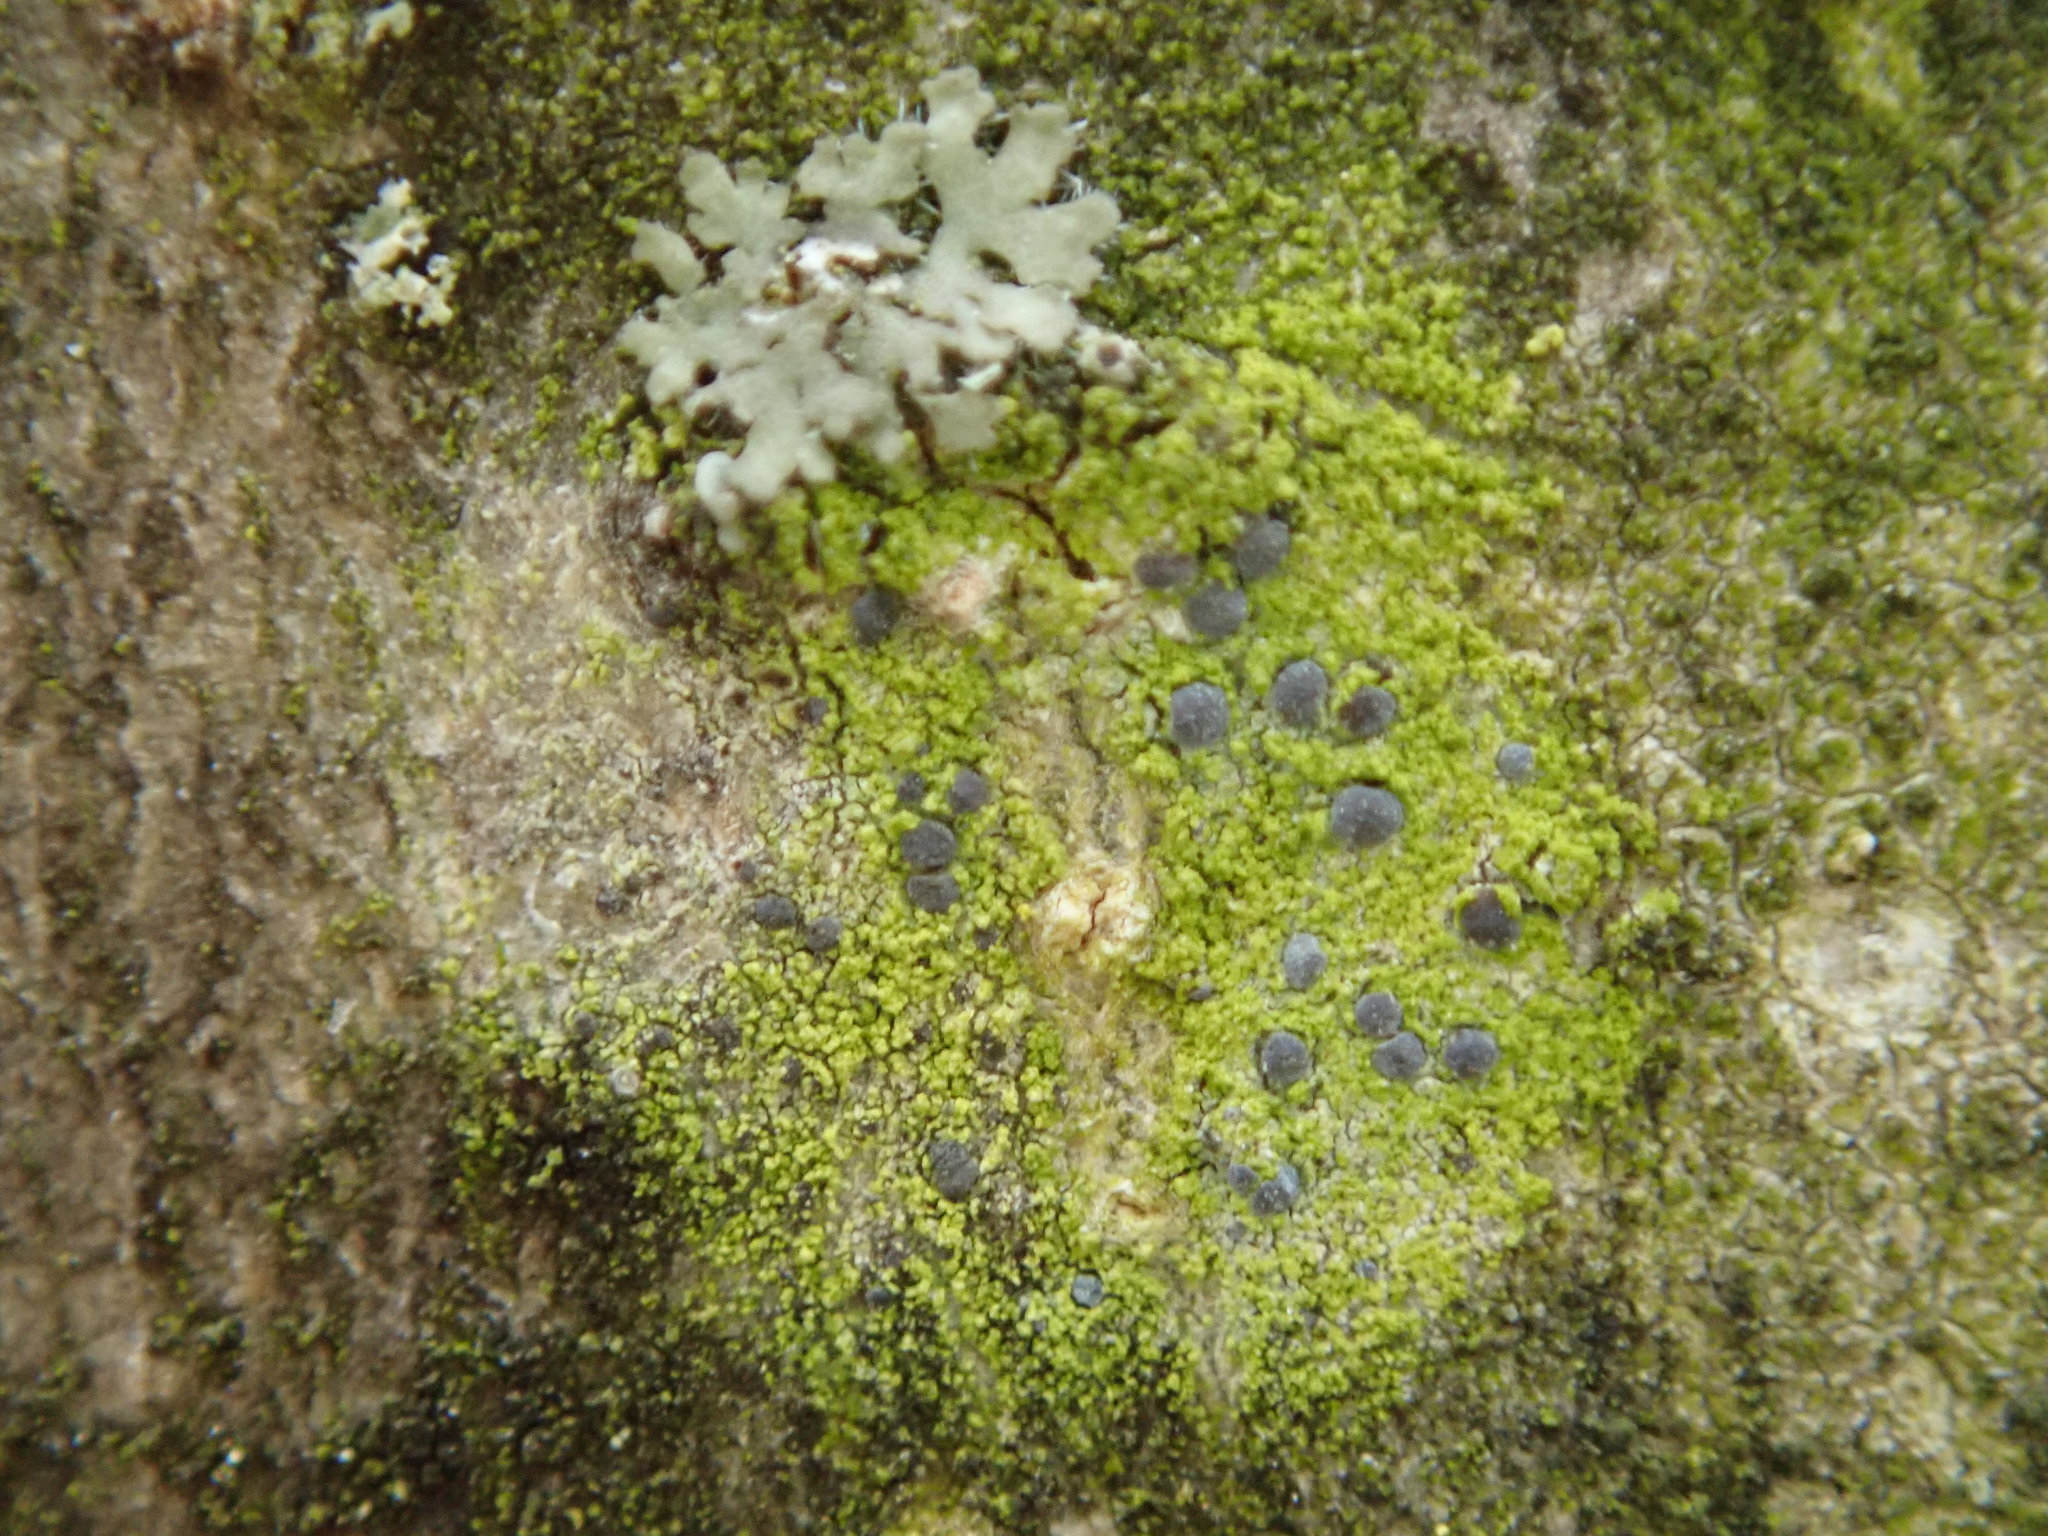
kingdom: Fungi
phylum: Ascomycota
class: Arthoniomycetes
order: Arthoniales
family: Chrysotrichaceae
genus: Chrysothrix
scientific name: Chrysothrix caesia
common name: Frosted comma lichen
